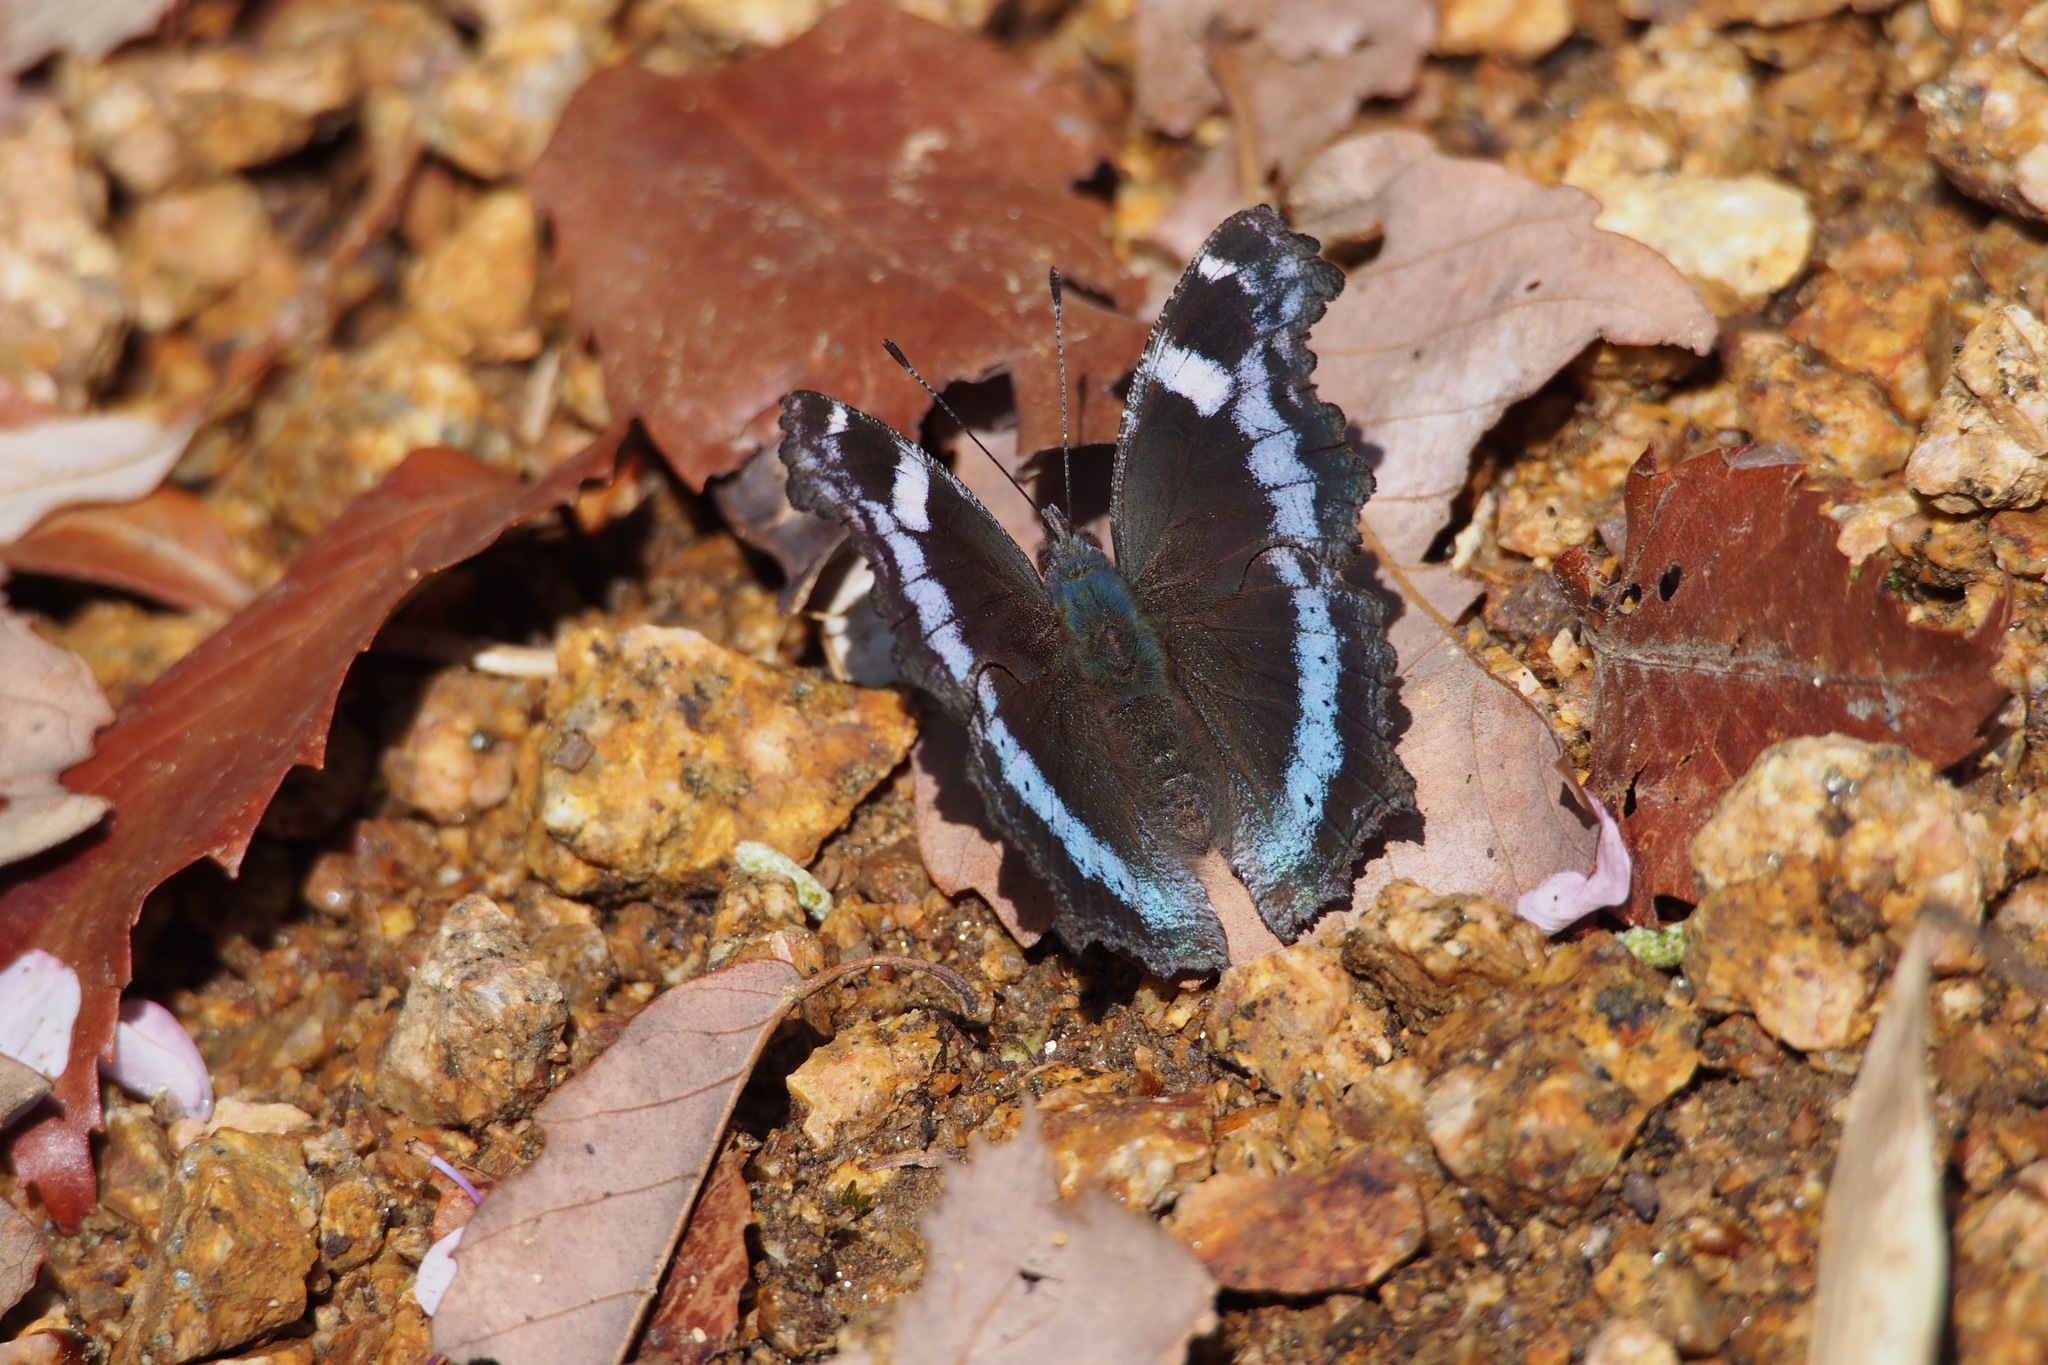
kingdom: Animalia
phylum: Arthropoda
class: Insecta
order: Lepidoptera
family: Nymphalidae
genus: Vanessa
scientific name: Vanessa Kaniska canace
